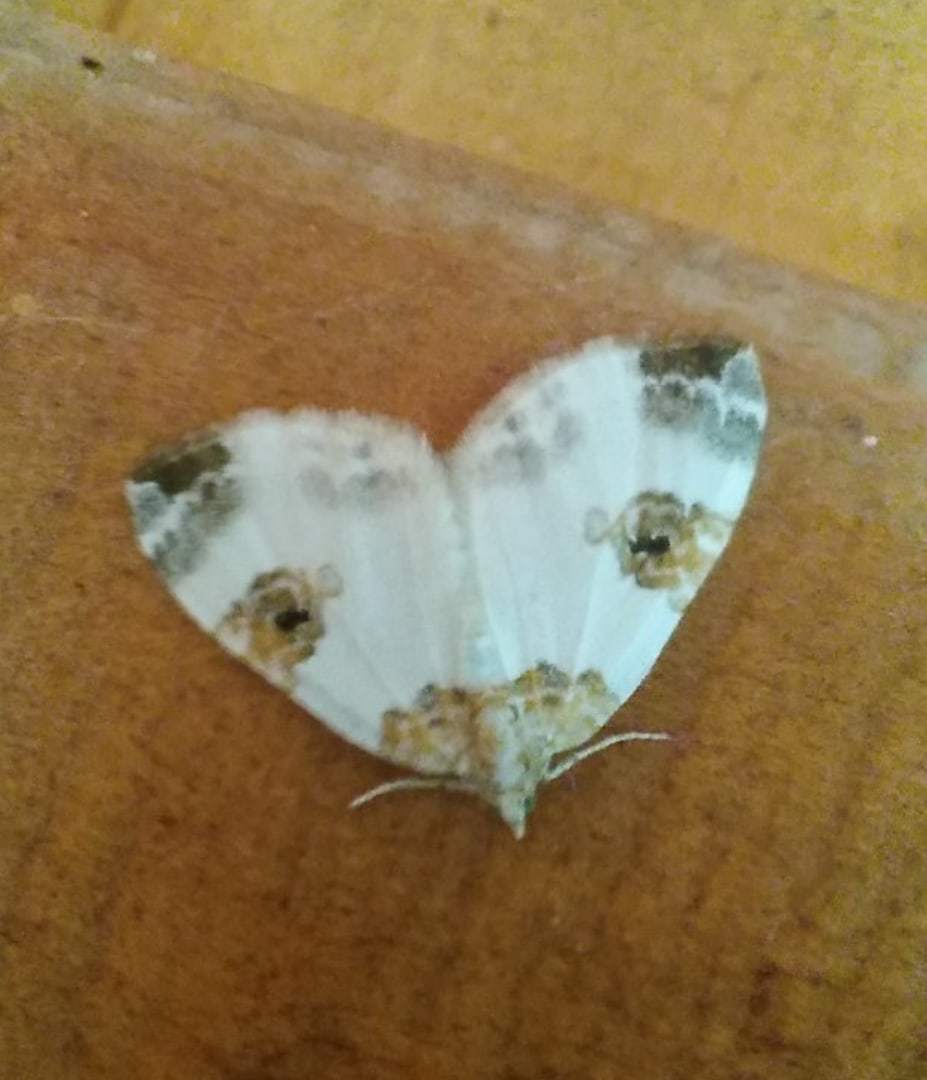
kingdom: Animalia
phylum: Arthropoda
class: Insecta
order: Lepidoptera
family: Geometridae
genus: Plemyria
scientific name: Plemyria rubiginata
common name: Blue-bordered carpet
